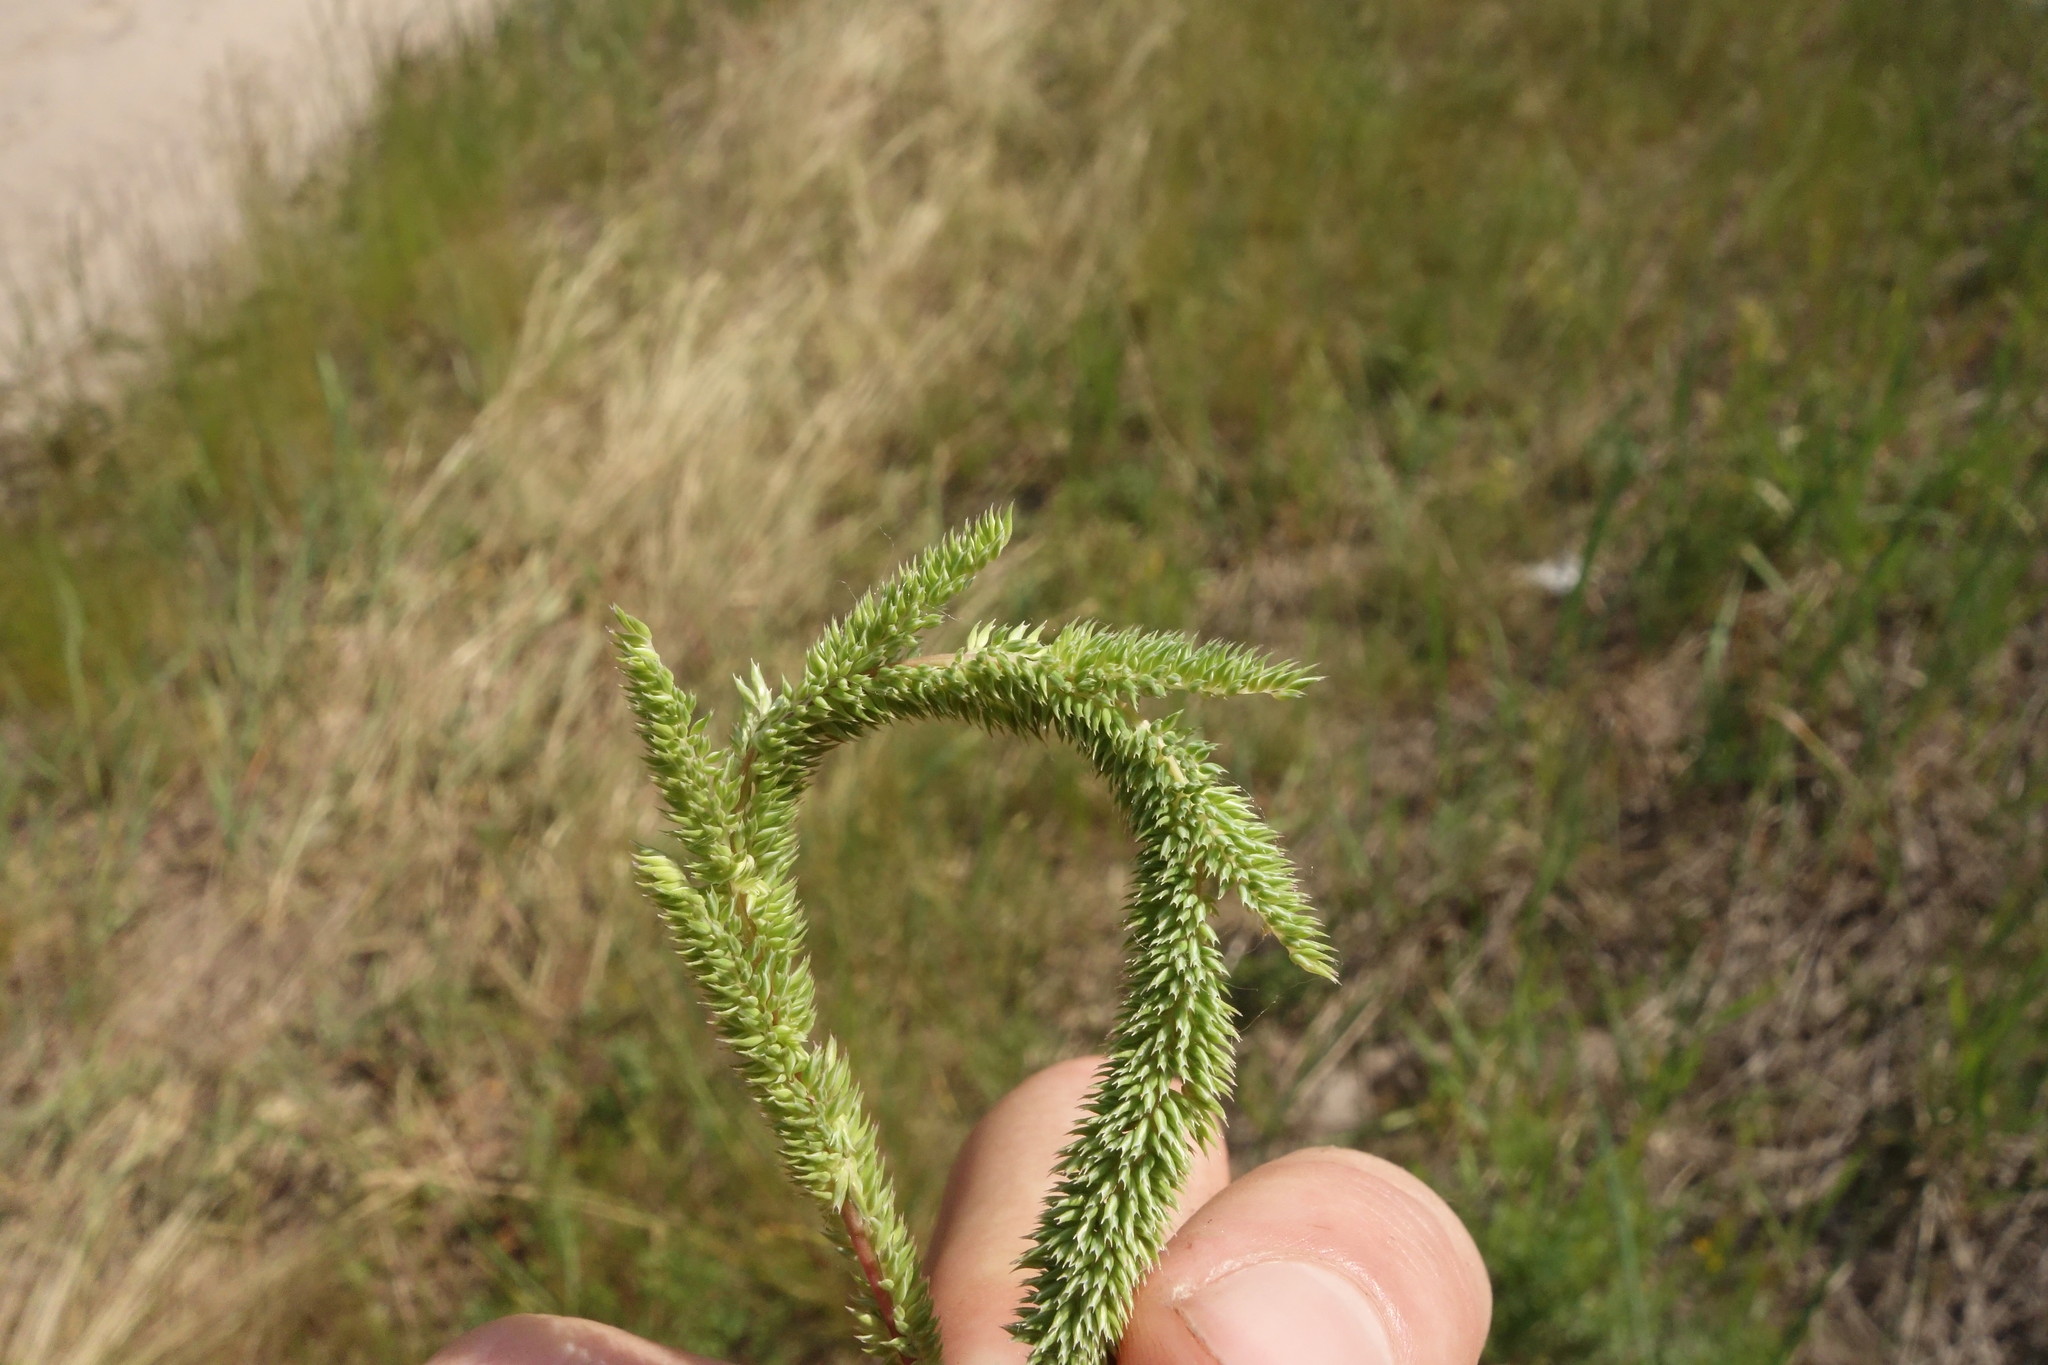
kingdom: Plantae
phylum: Tracheophyta
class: Liliopsida
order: Poales
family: Poaceae
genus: Phleum
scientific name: Phleum phleoides
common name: Purple-stem cat's-tail
